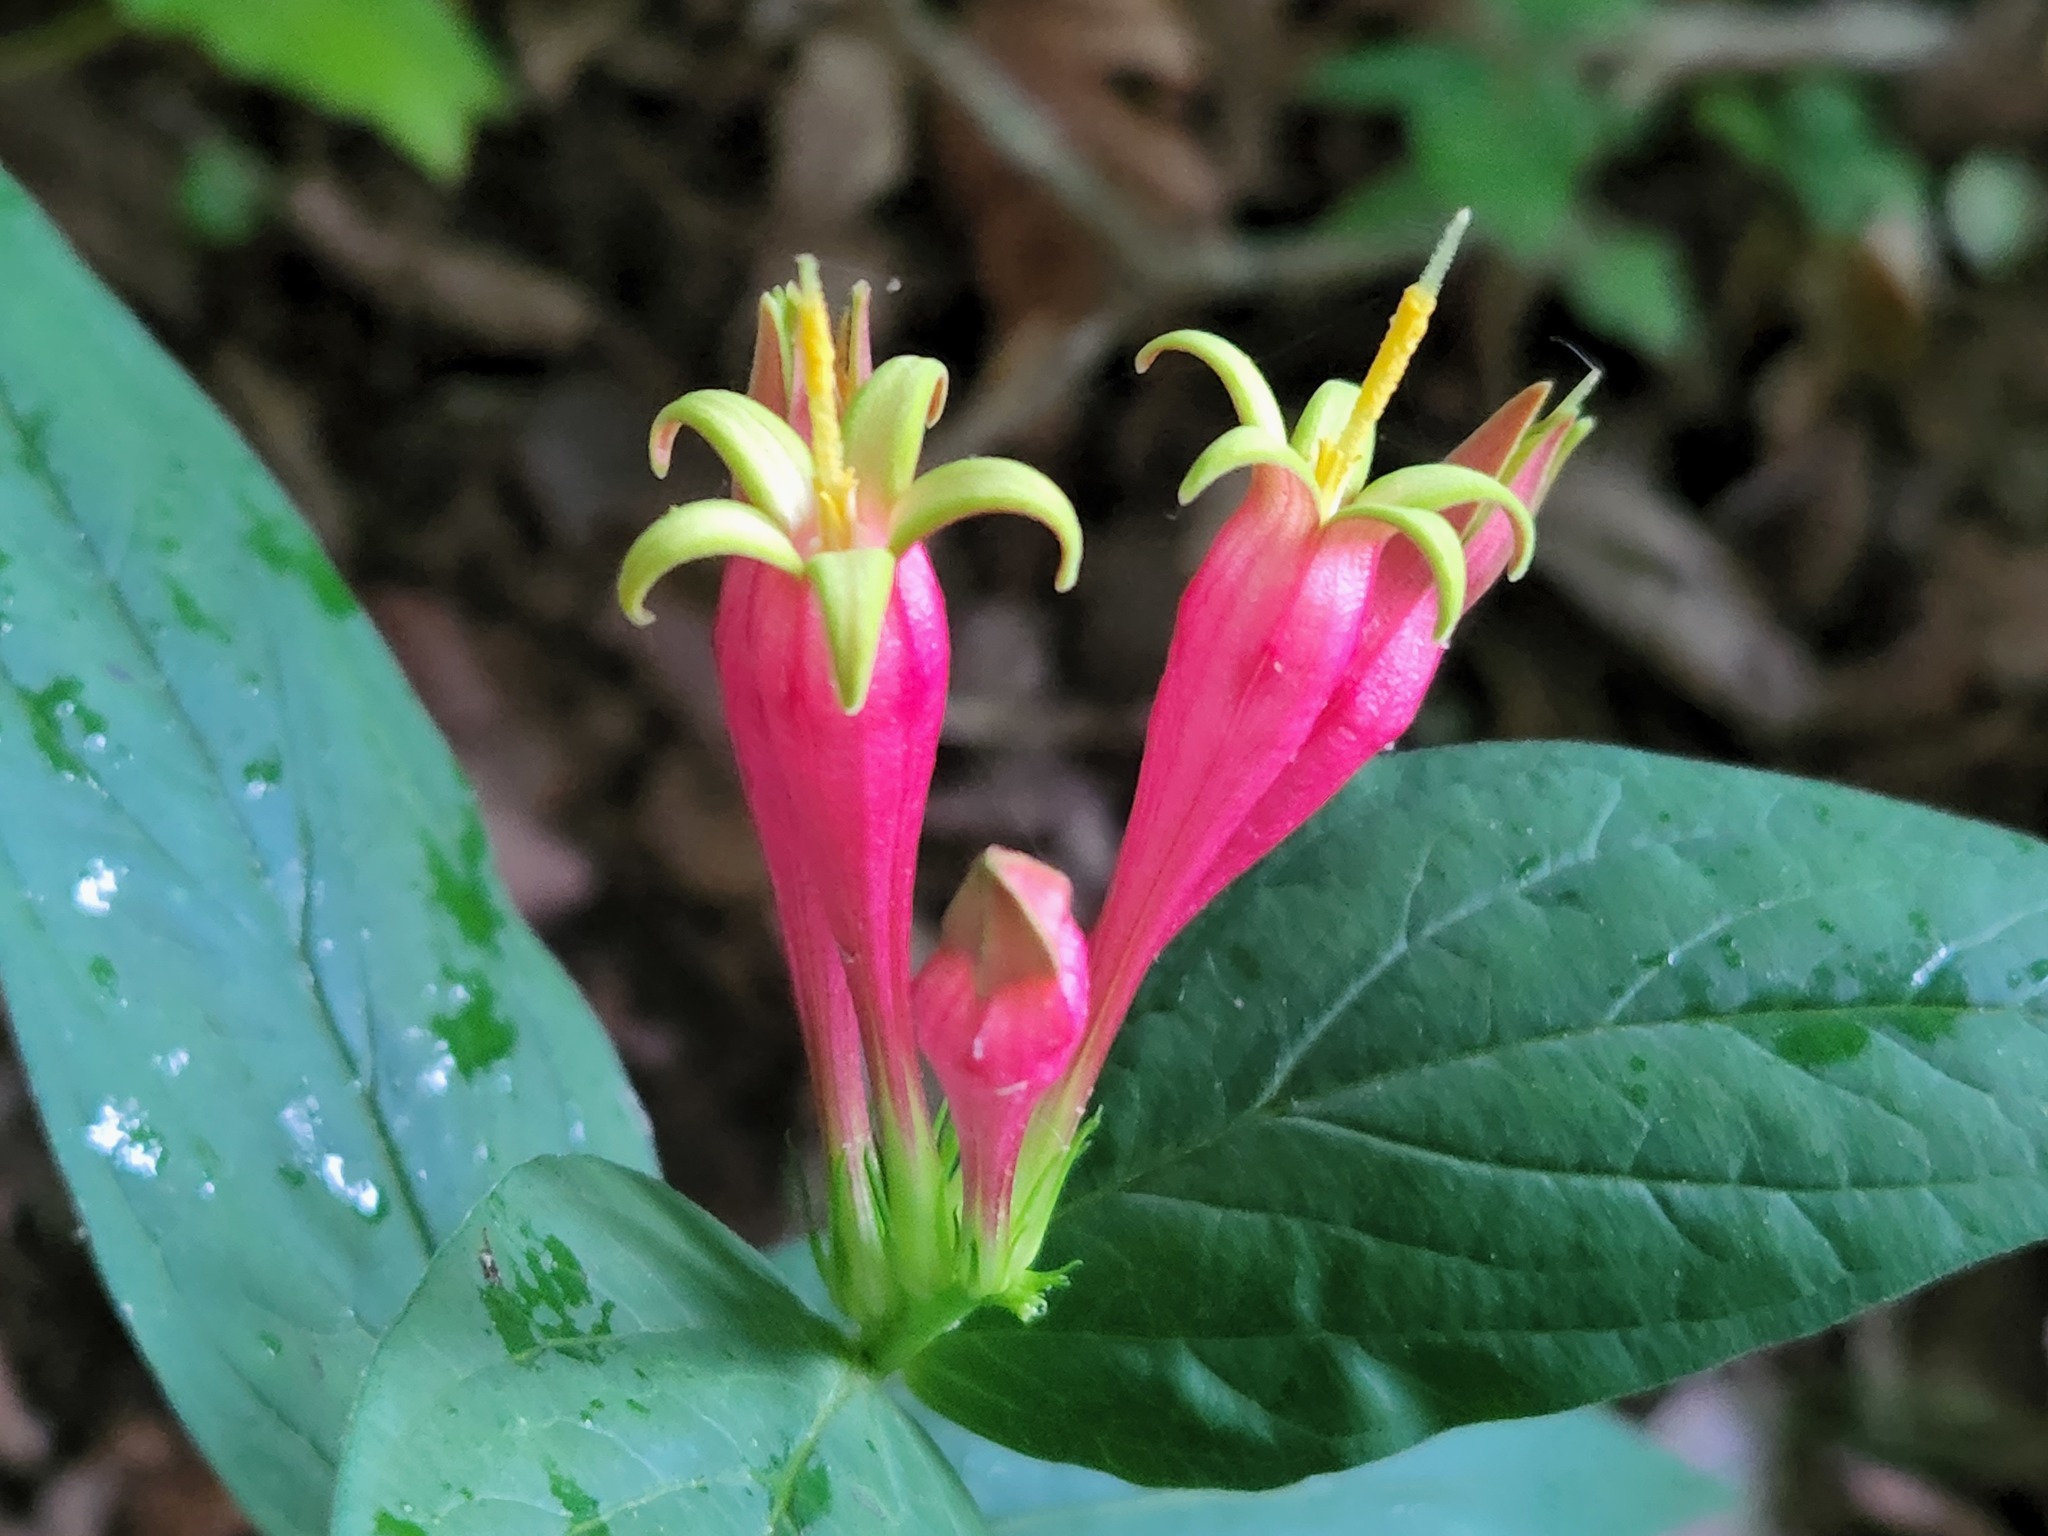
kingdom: Plantae
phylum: Tracheophyta
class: Magnoliopsida
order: Gentianales
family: Loganiaceae
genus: Spigelia
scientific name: Spigelia marilandica
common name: Indian-pink
